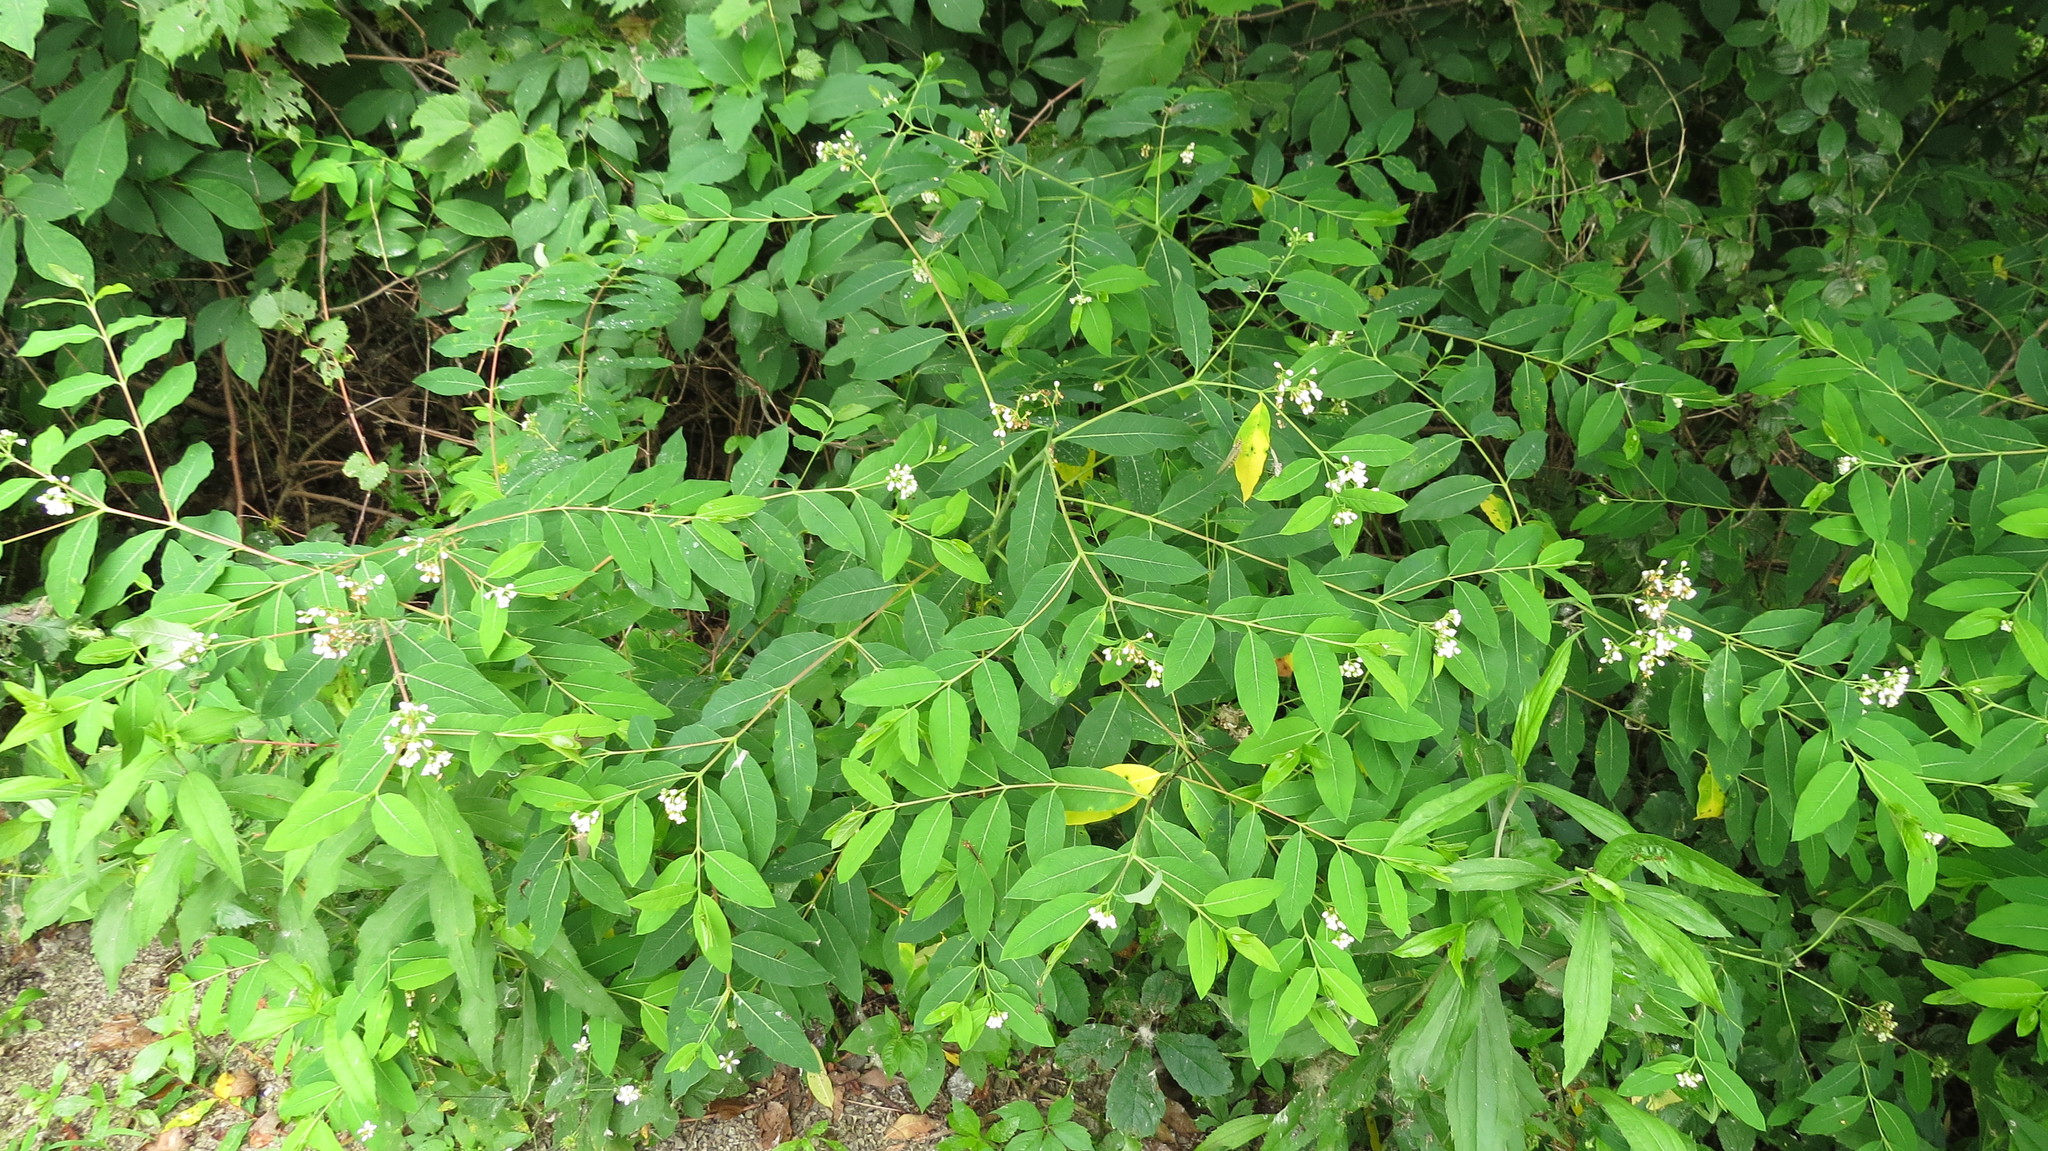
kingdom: Plantae
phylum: Tracheophyta
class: Magnoliopsida
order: Gentianales
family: Apocynaceae
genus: Apocynum
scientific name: Apocynum floribundum
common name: Hybrid dogbane
